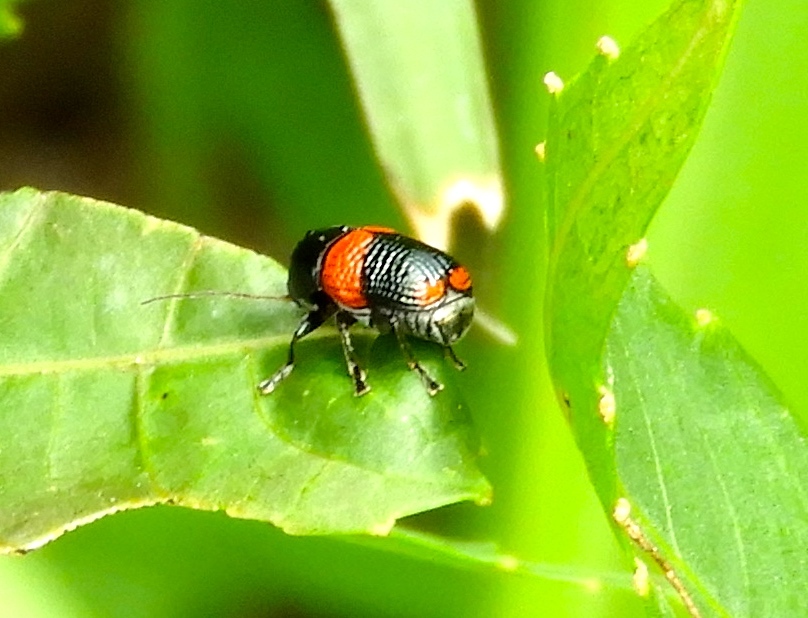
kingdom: Animalia
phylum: Arthropoda
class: Insecta
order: Coleoptera
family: Chrysomelidae
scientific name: Chrysomelidae
